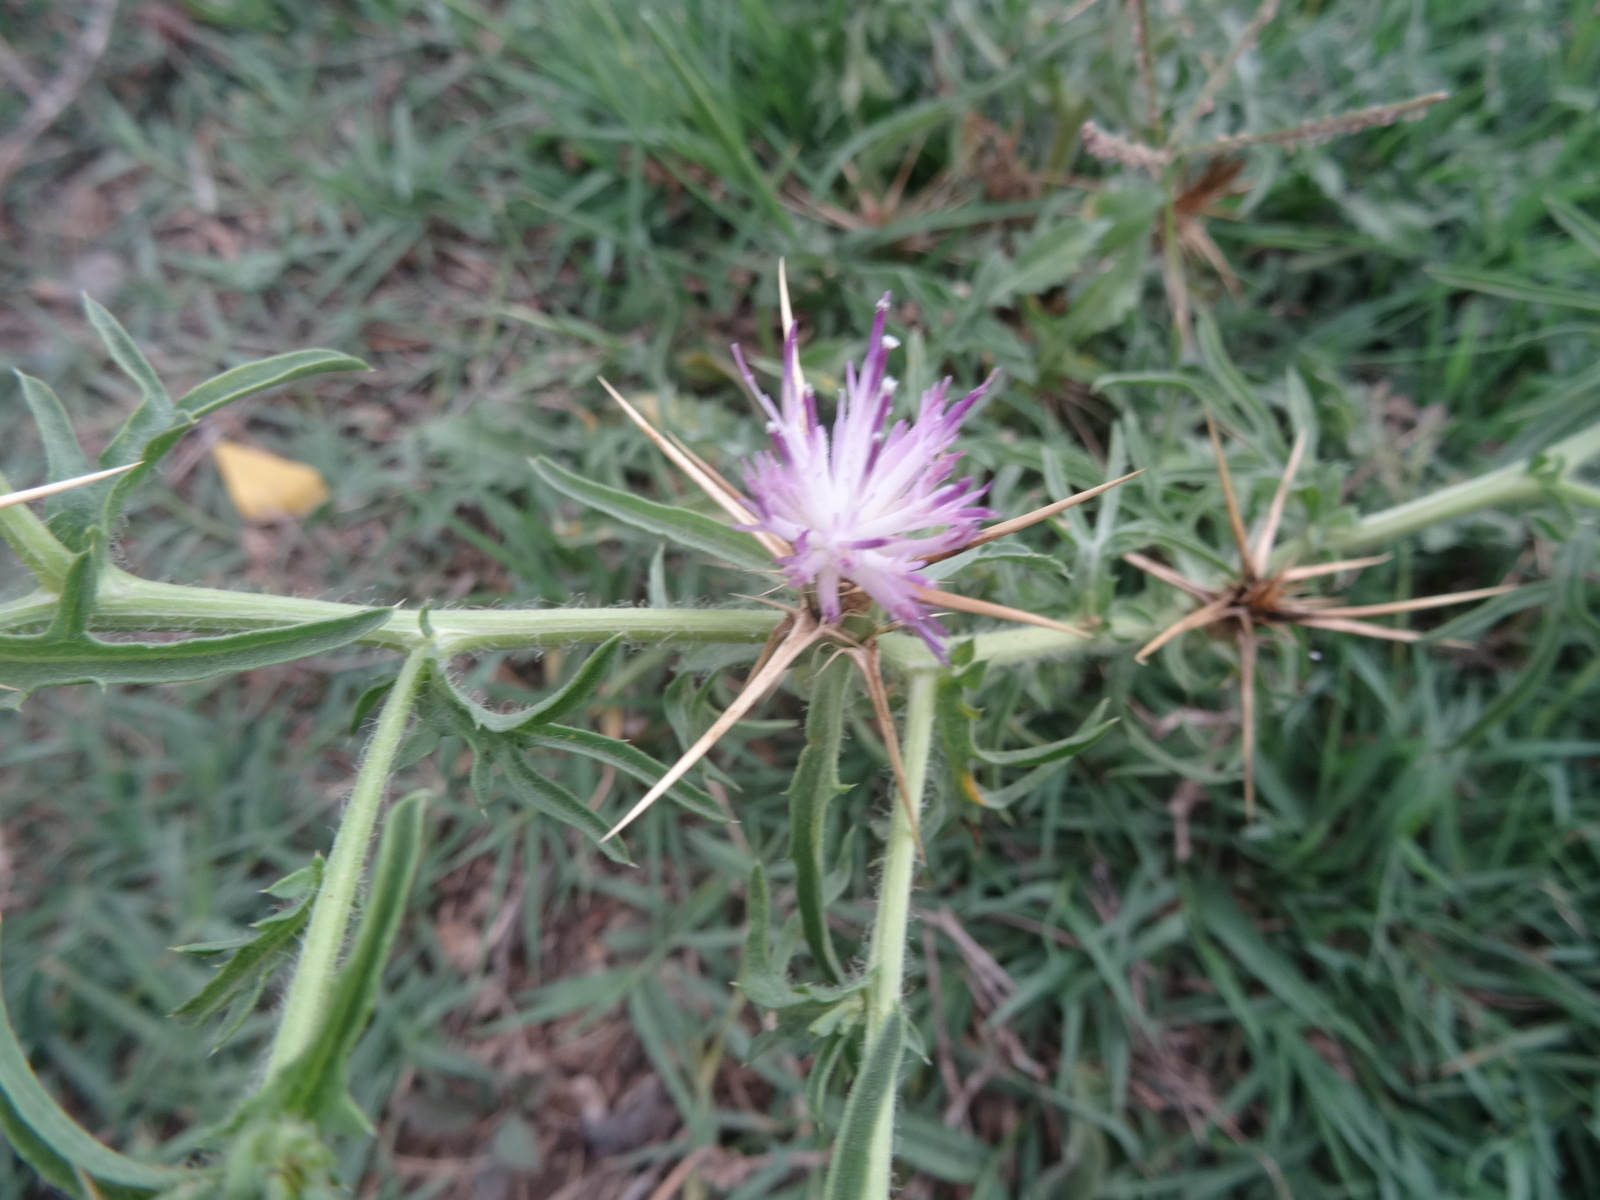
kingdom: Plantae
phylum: Tracheophyta
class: Magnoliopsida
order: Asterales
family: Asteraceae
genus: Centaurea
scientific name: Centaurea calcitrapa
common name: Red star-thistle
